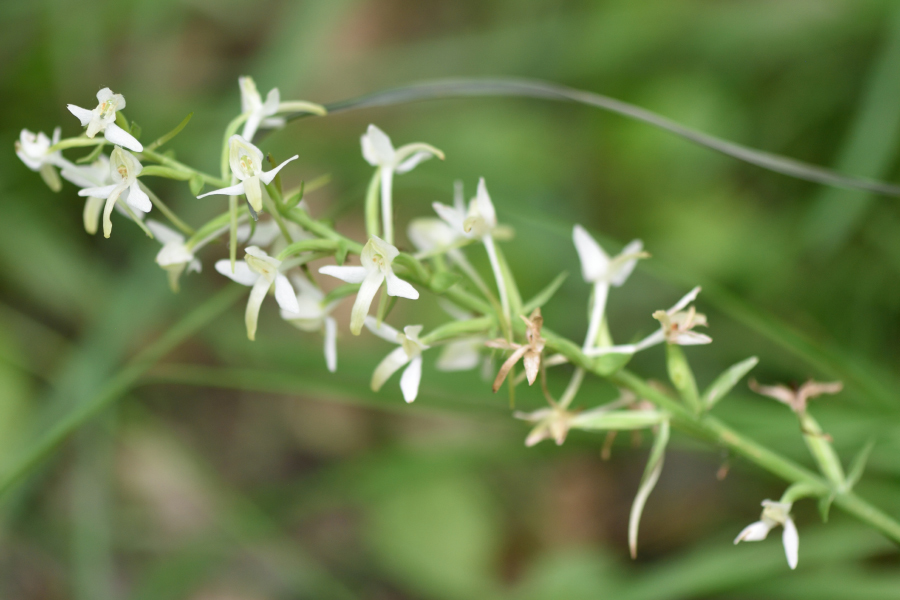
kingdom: Plantae
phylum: Tracheophyta
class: Liliopsida
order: Asparagales
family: Orchidaceae
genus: Platanthera
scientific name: Platanthera bifolia
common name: Lesser butterfly-orchid
